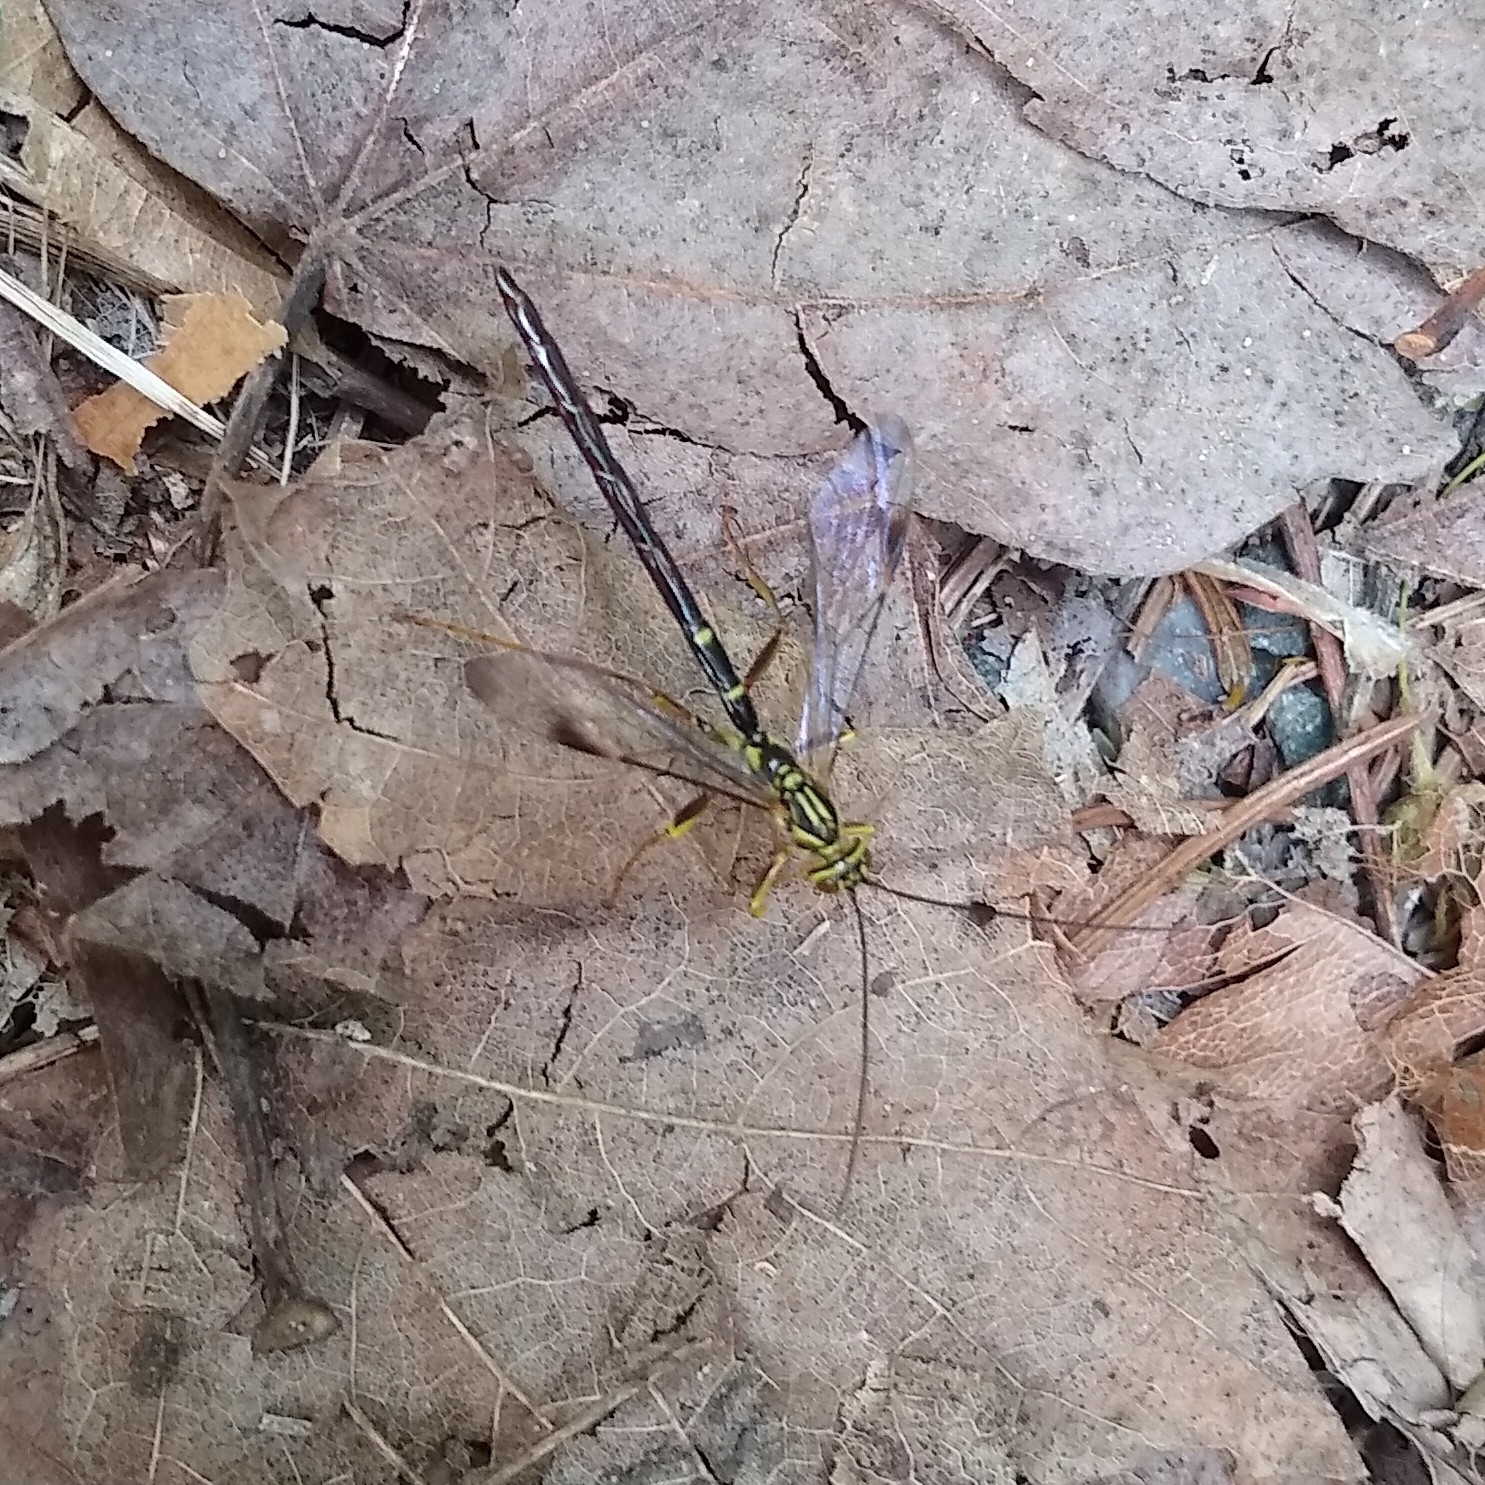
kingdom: Animalia
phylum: Arthropoda
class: Insecta
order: Hymenoptera
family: Ichneumonidae
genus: Megarhyssa
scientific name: Megarhyssa macrura
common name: Long-tailed giant ichneumonid wasp
